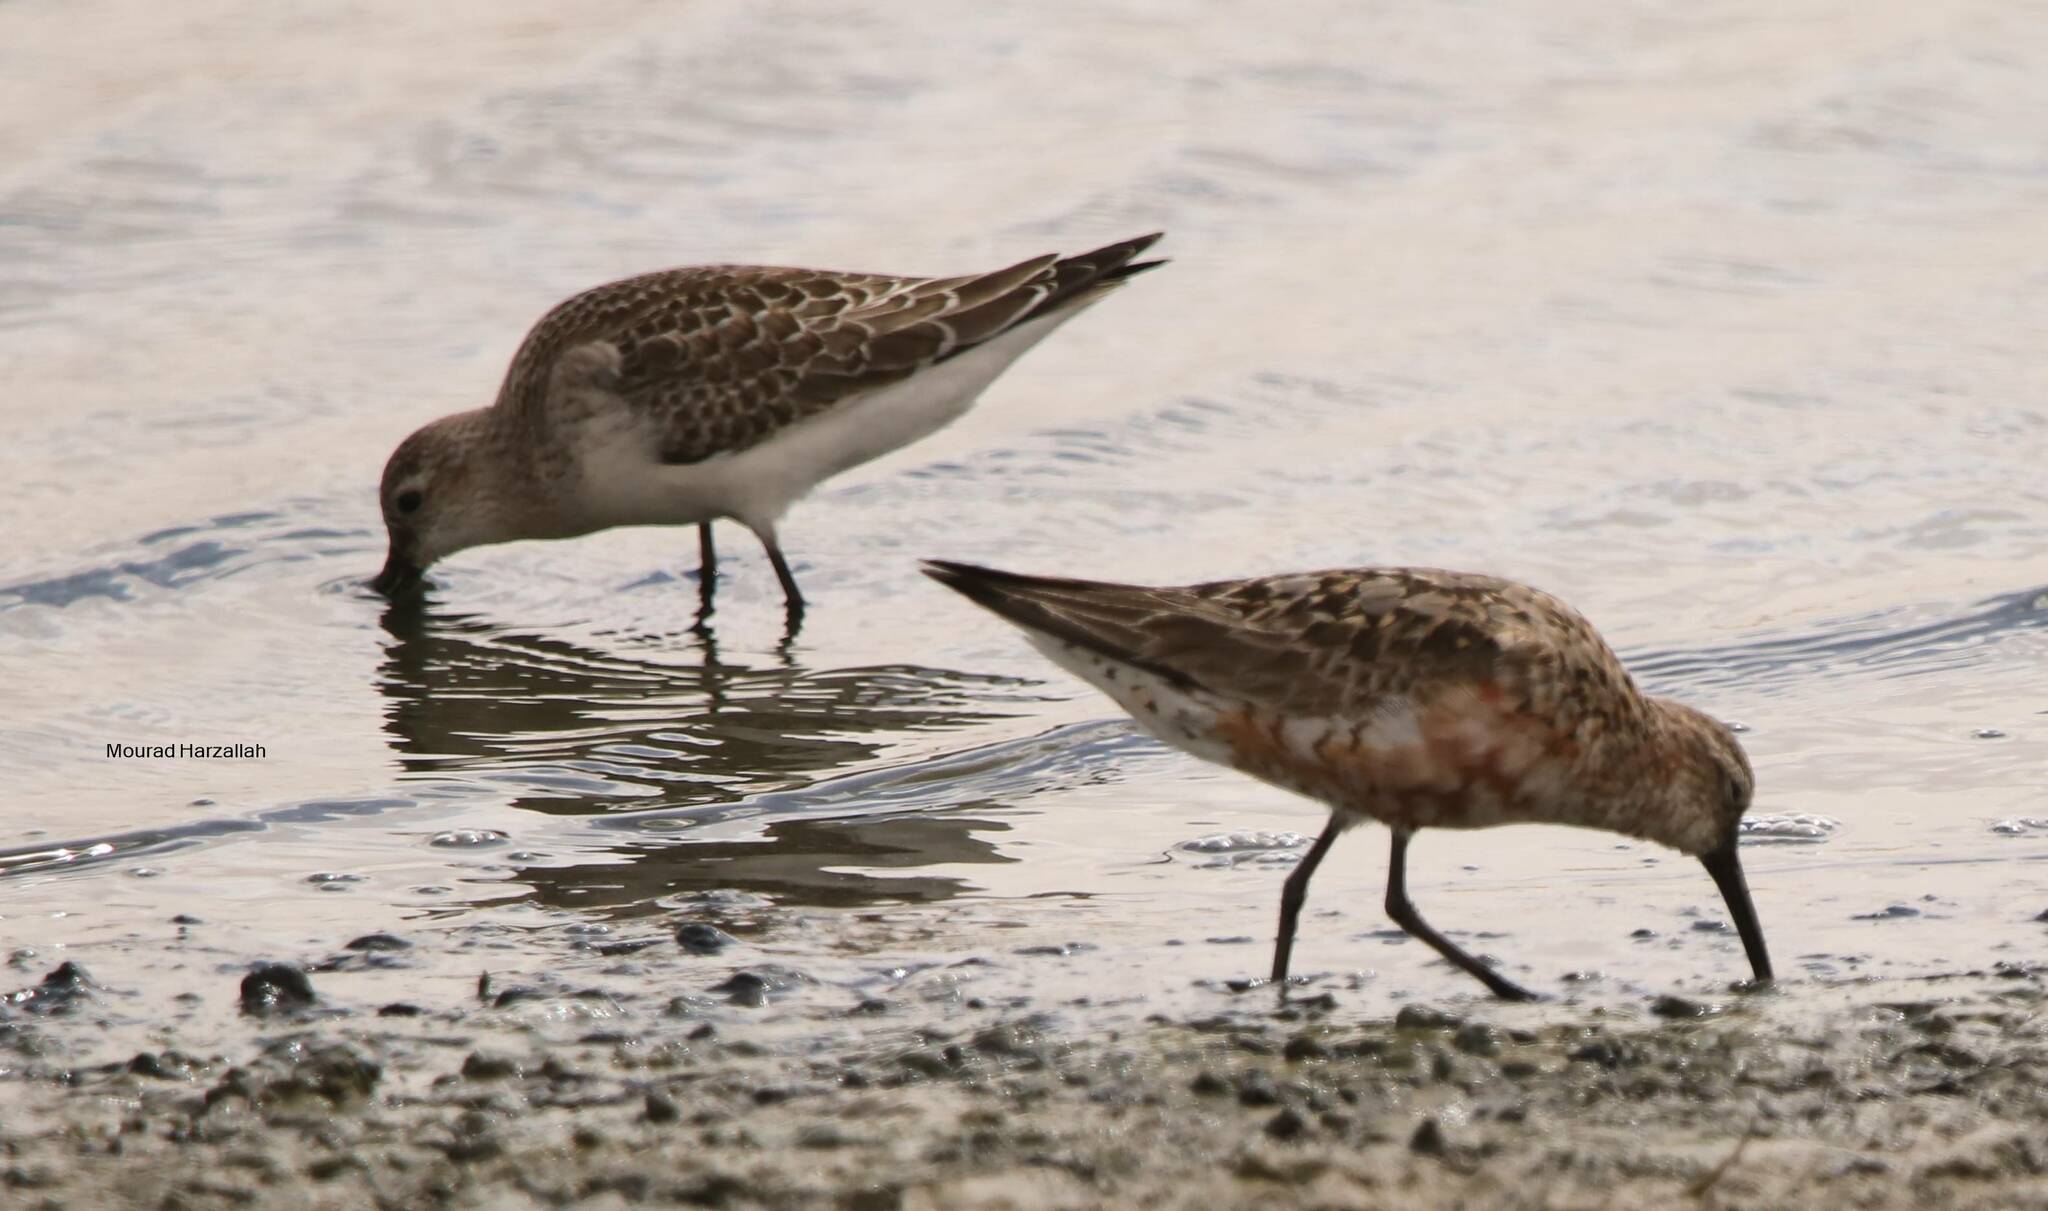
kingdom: Animalia
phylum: Chordata
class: Aves
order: Charadriiformes
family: Scolopacidae
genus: Calidris
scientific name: Calidris ferruginea
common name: Curlew sandpiper
